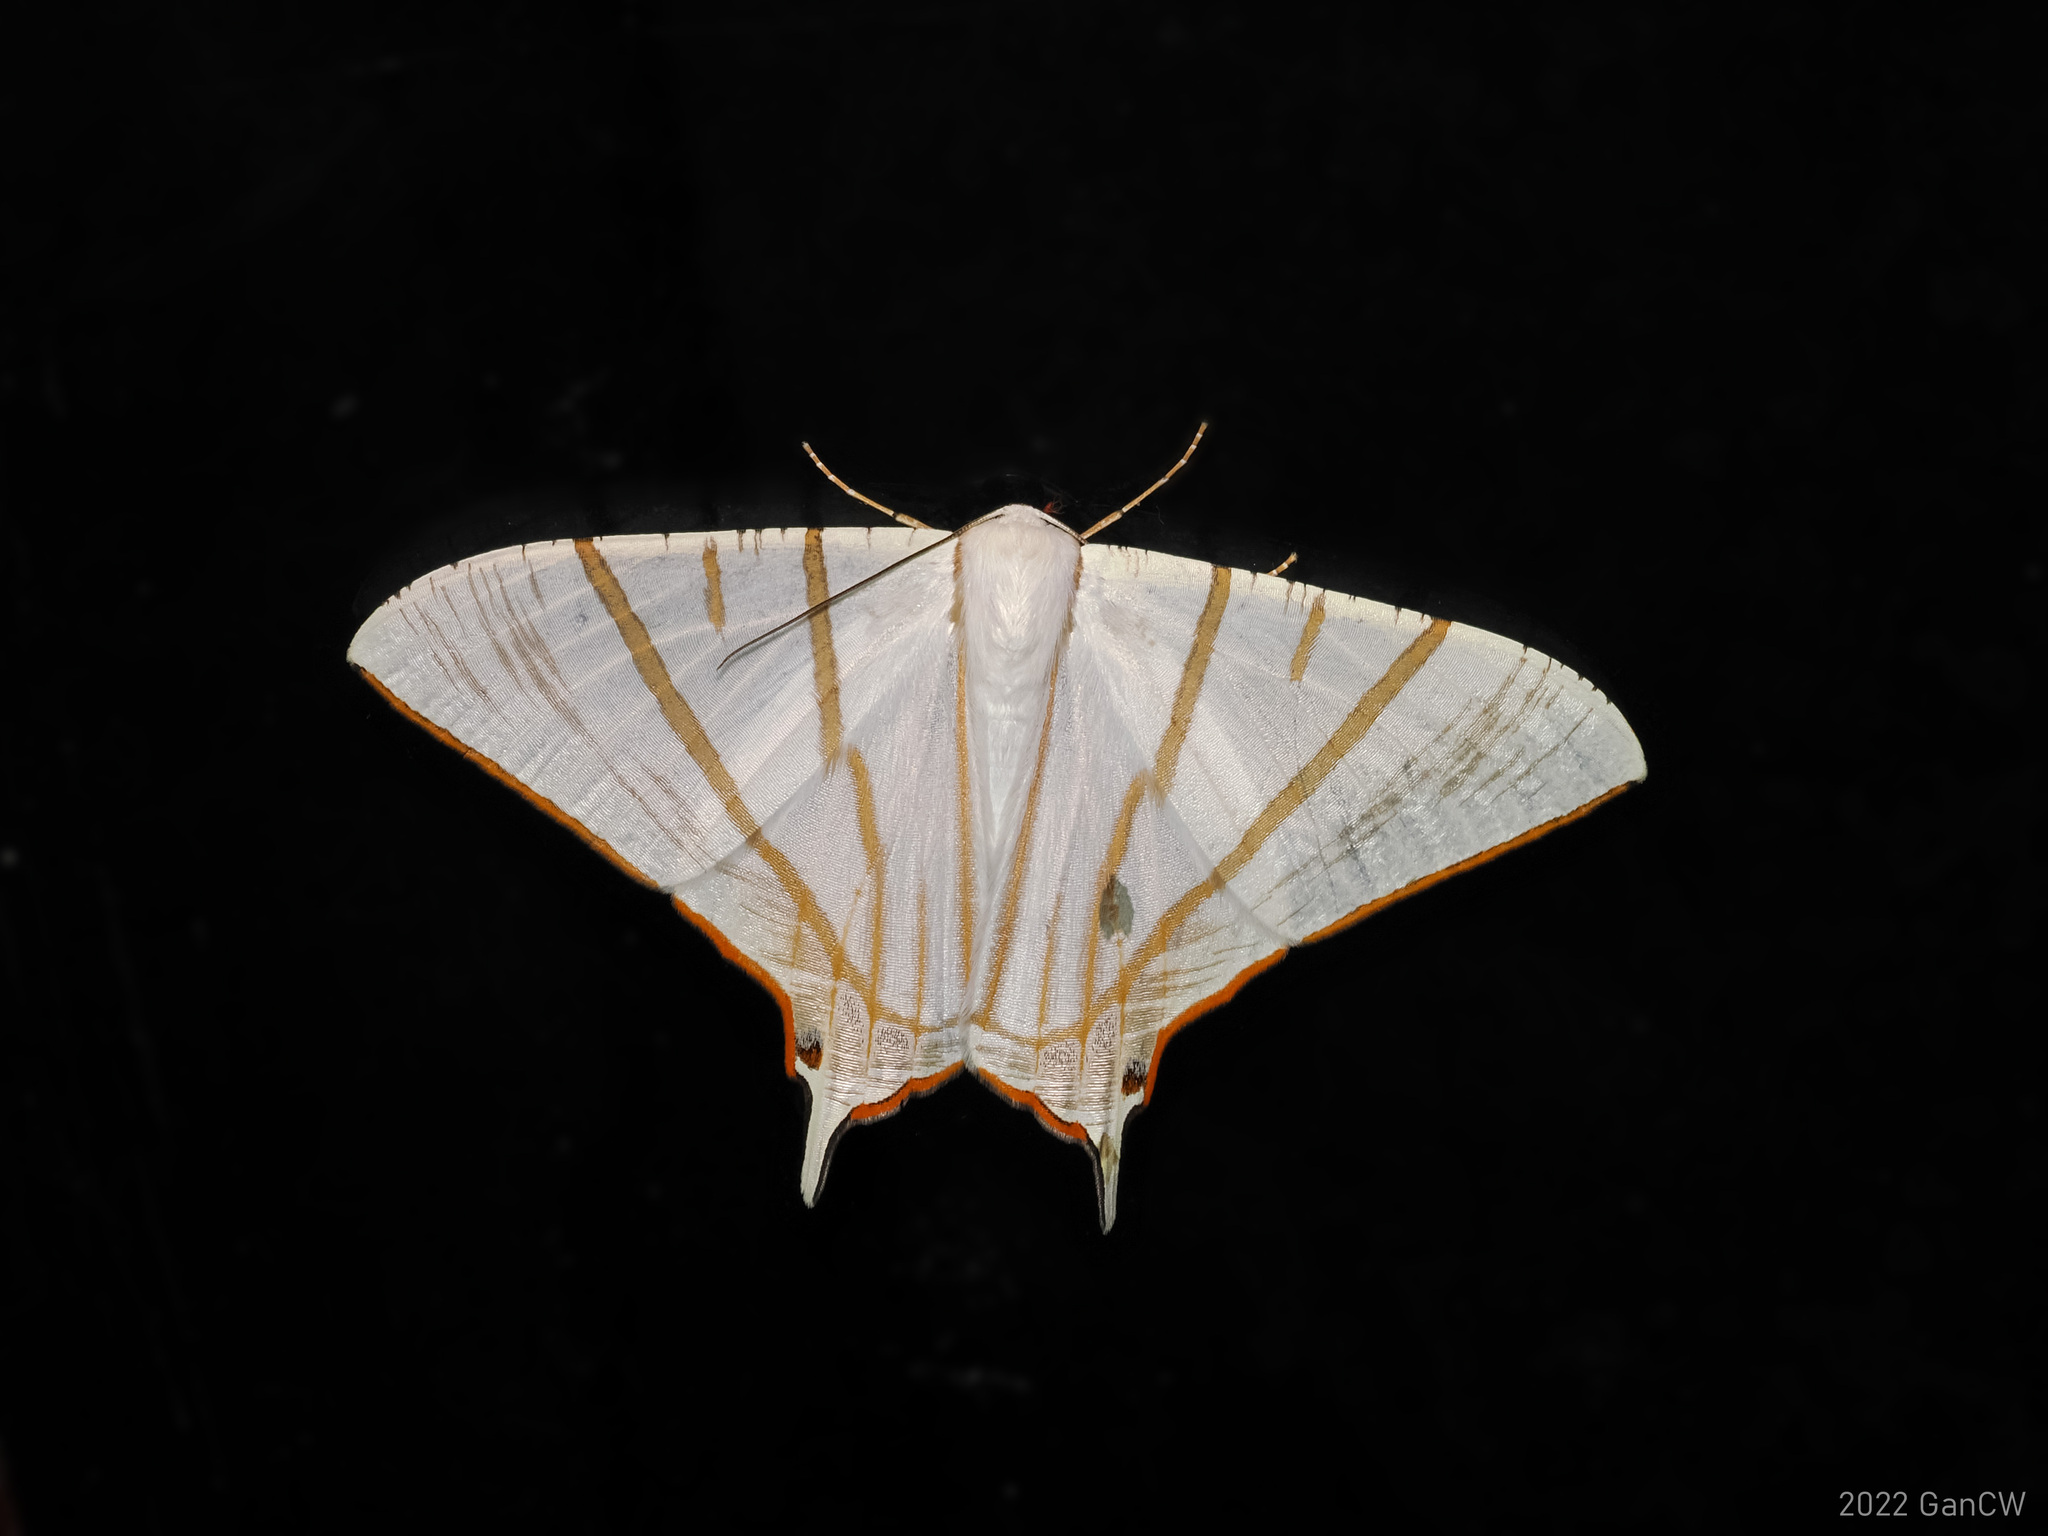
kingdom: Animalia
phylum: Arthropoda
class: Insecta
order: Lepidoptera
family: Geometridae
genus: Ourapteryx
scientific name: Ourapteryx podaliriata
